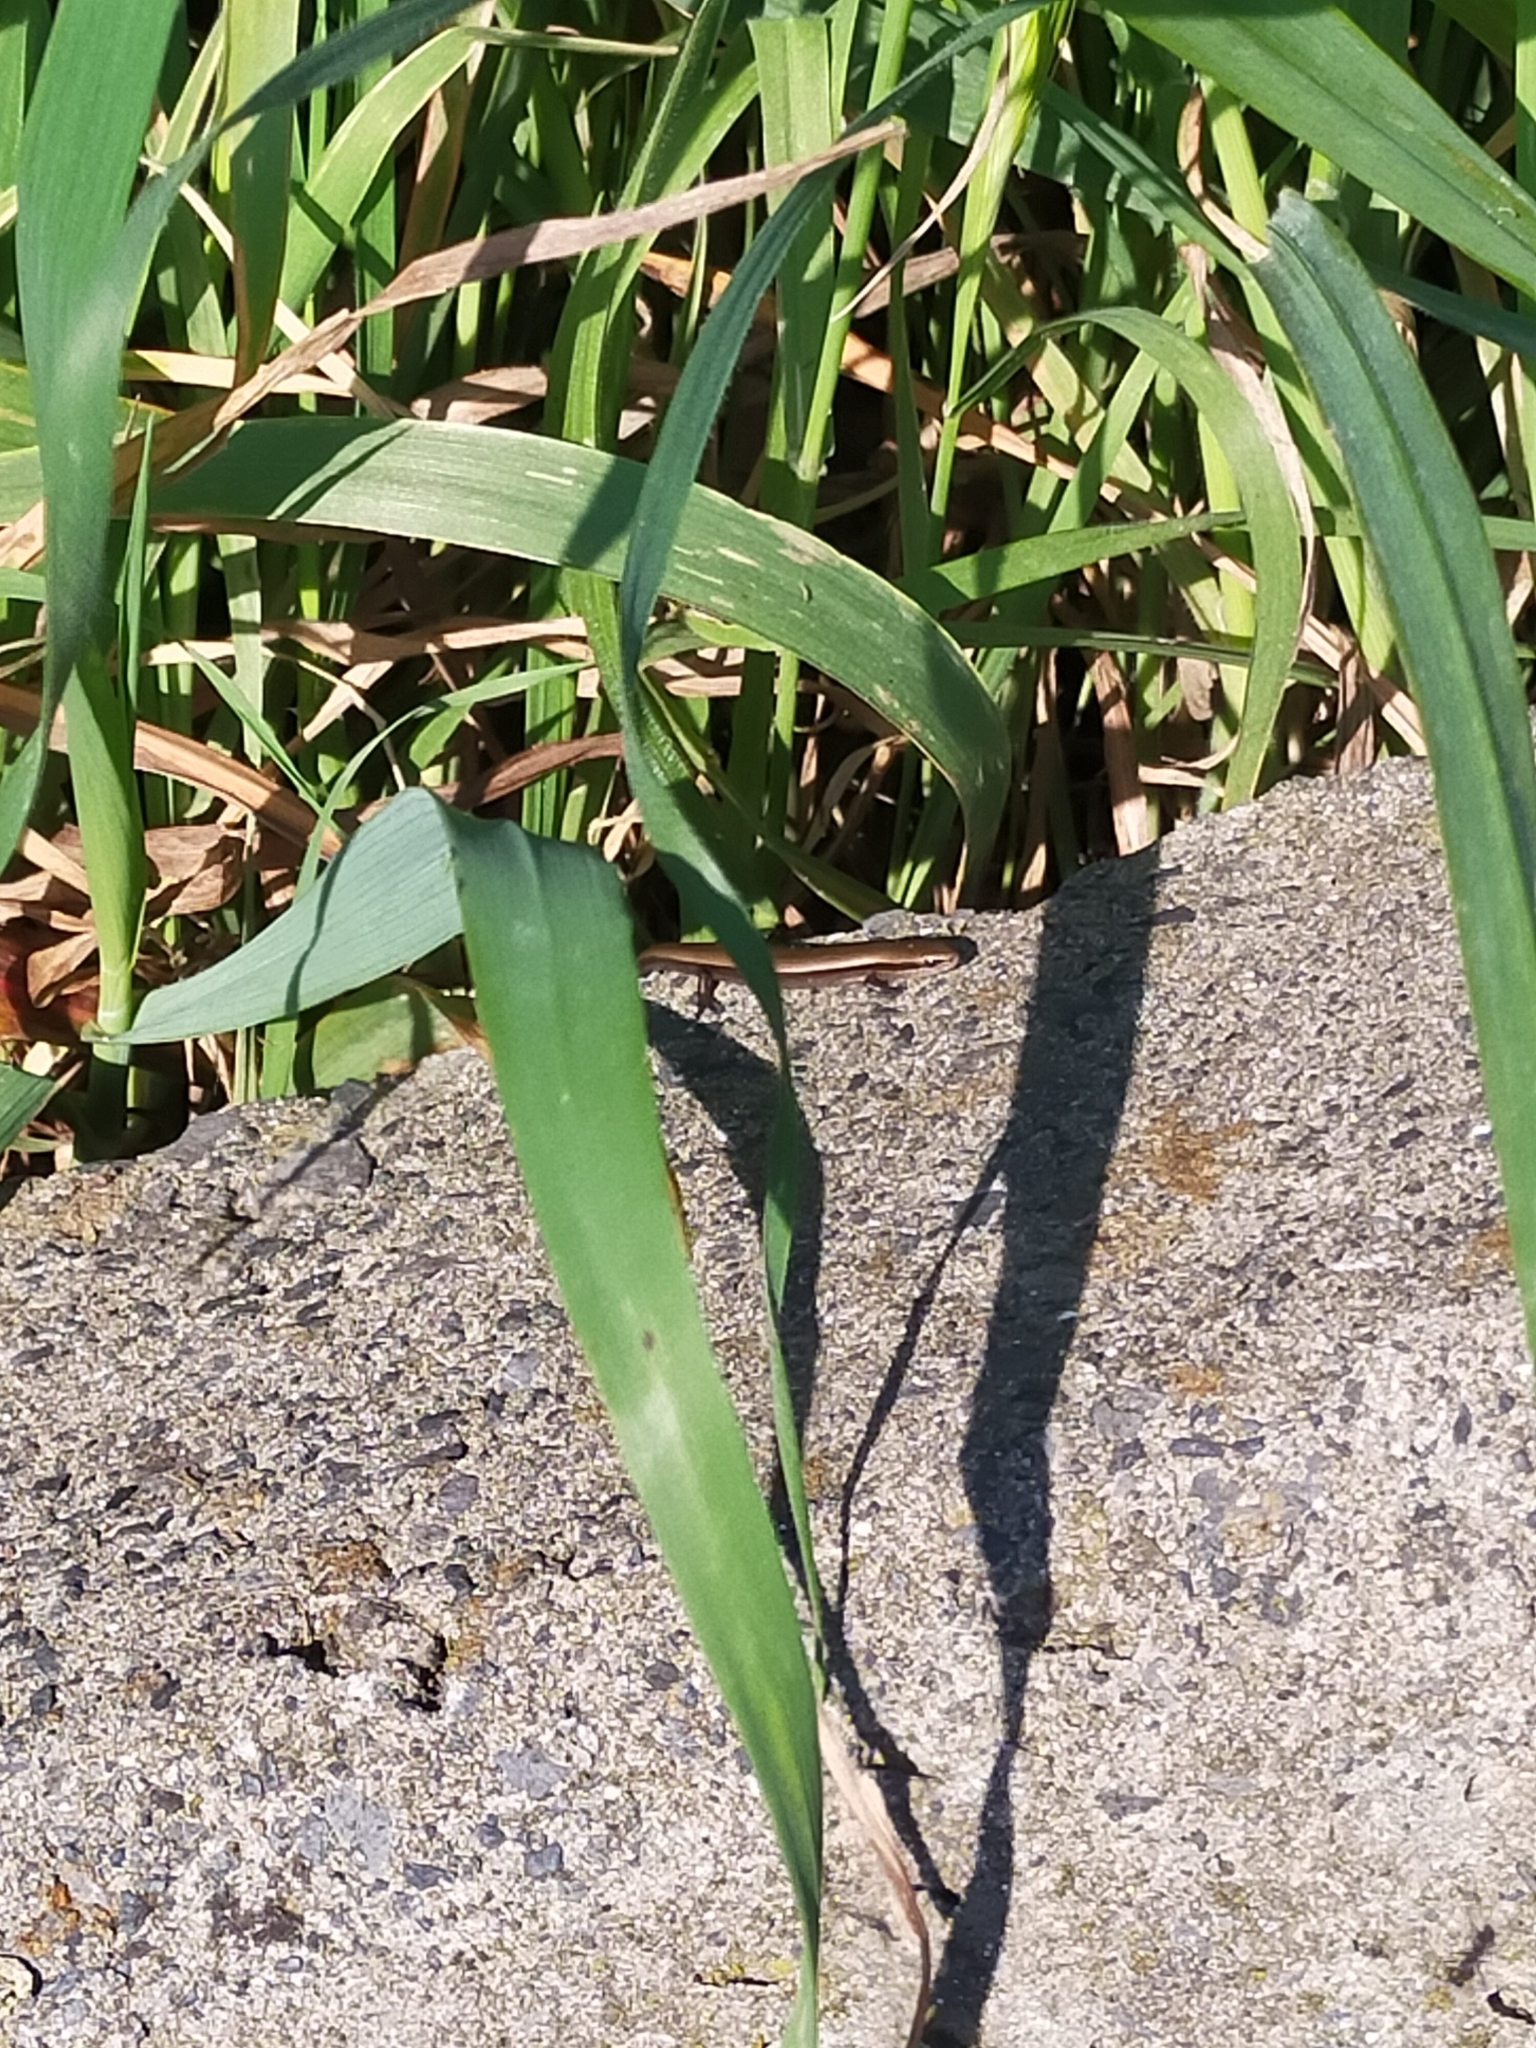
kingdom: Animalia
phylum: Chordata
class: Squamata
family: Scincidae
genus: Ablepharus
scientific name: Ablepharus kitaibelii
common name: Juniper skink
